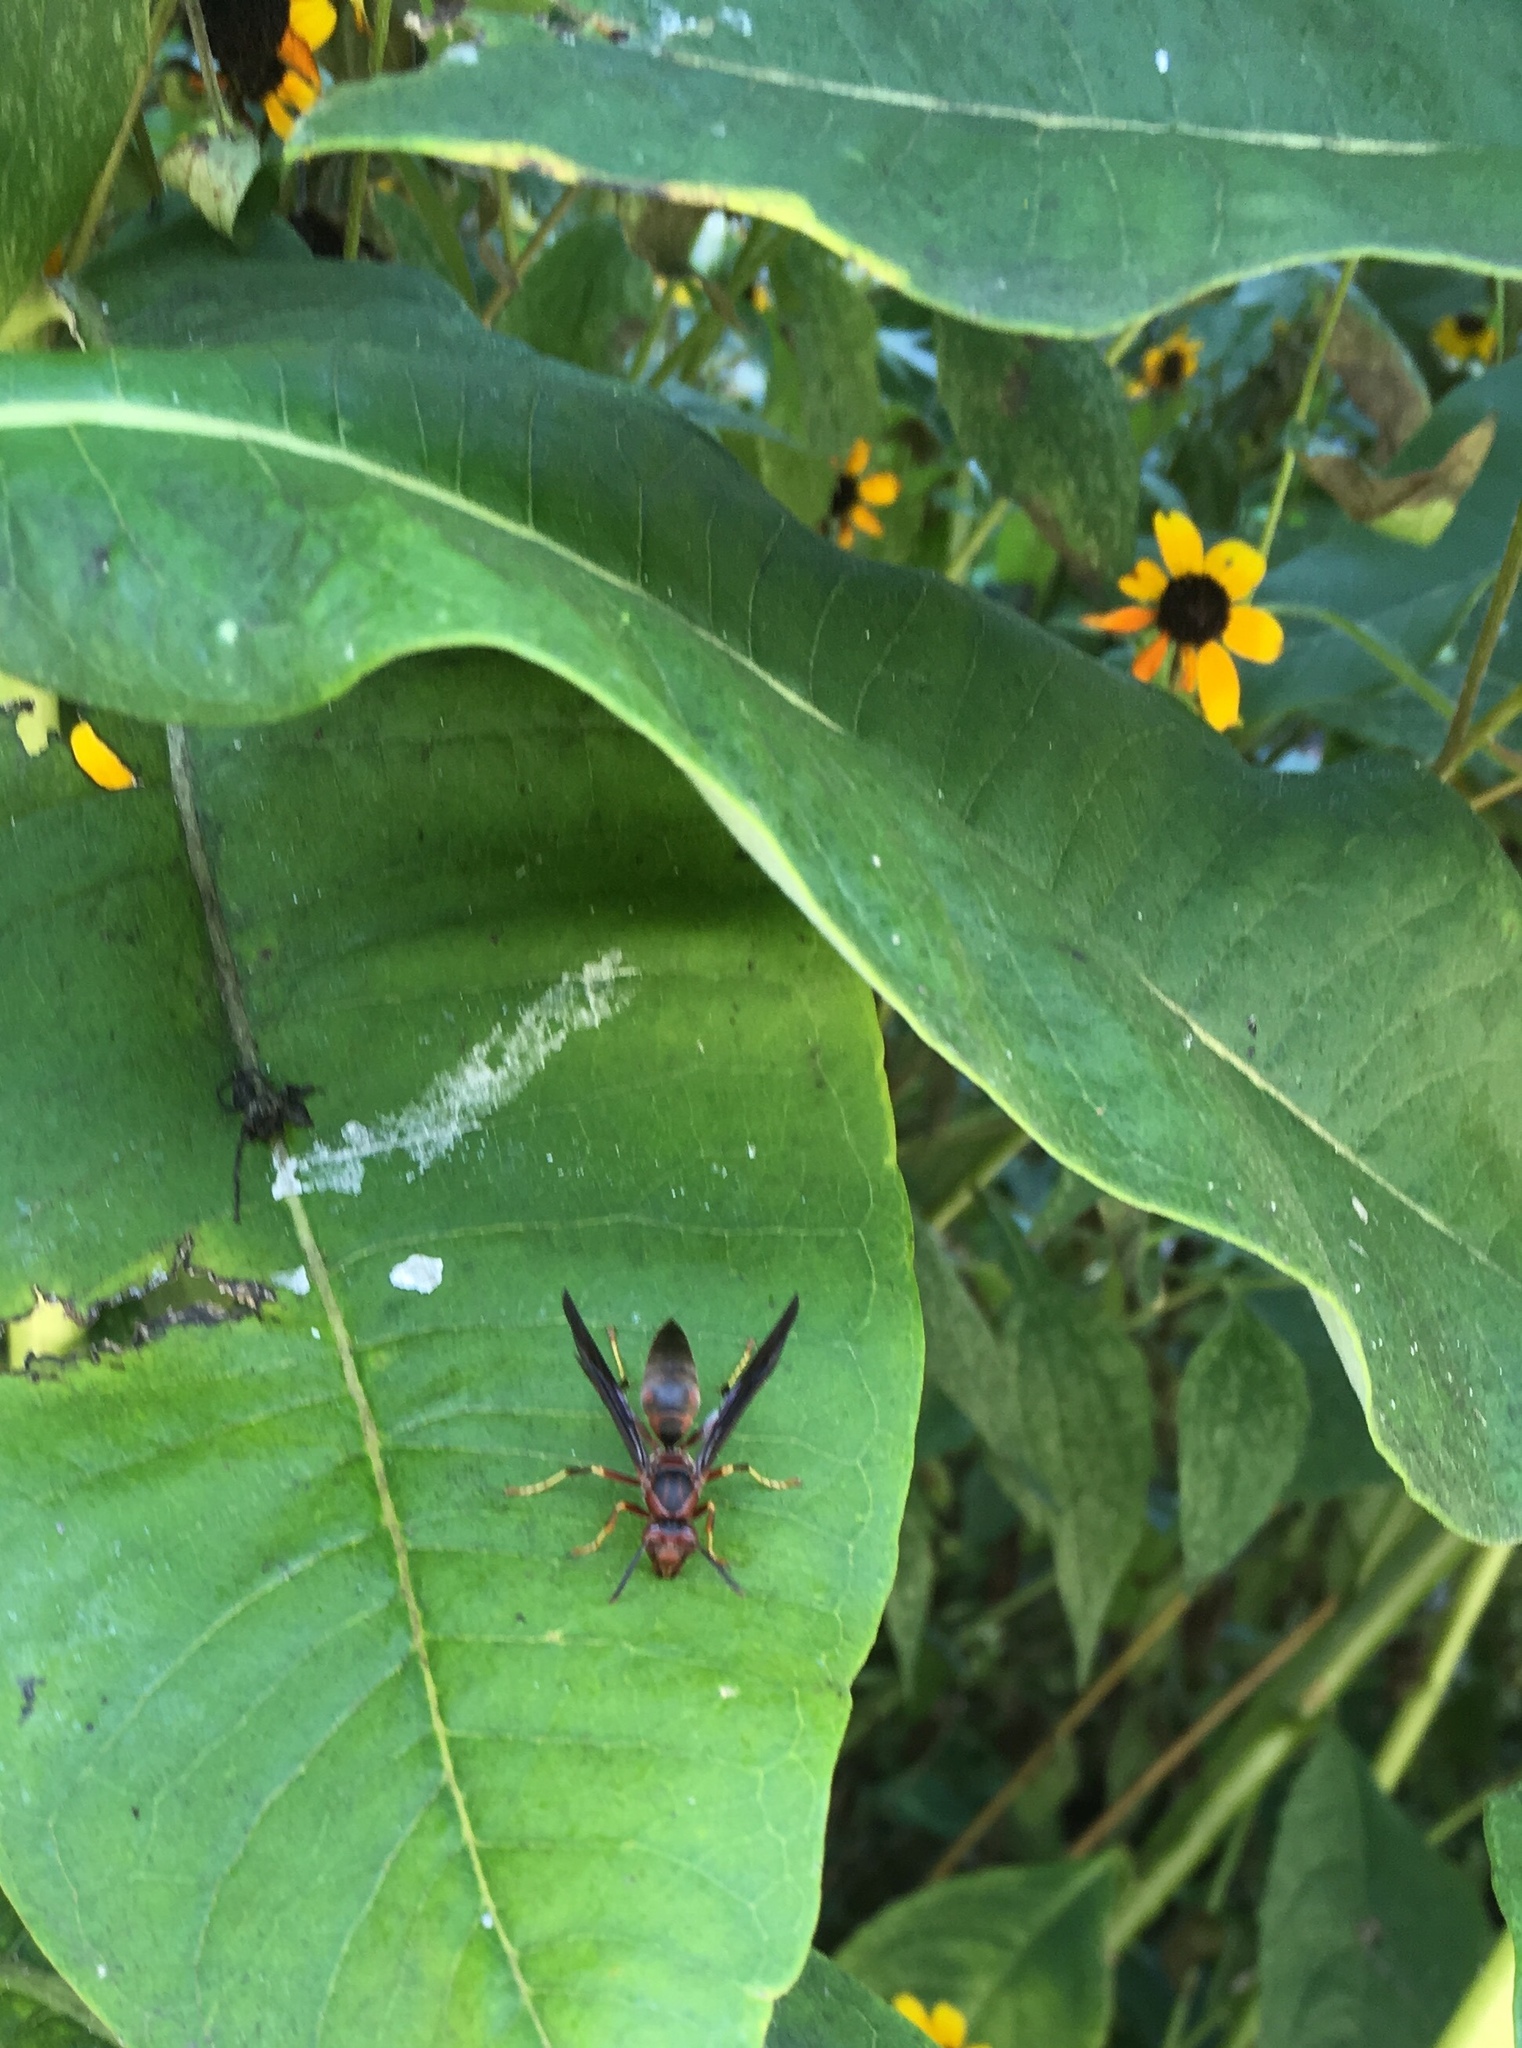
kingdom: Animalia
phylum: Arthropoda
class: Insecta
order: Hymenoptera
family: Eumenidae
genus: Polistes
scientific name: Polistes metricus
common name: Metric paper wasp
